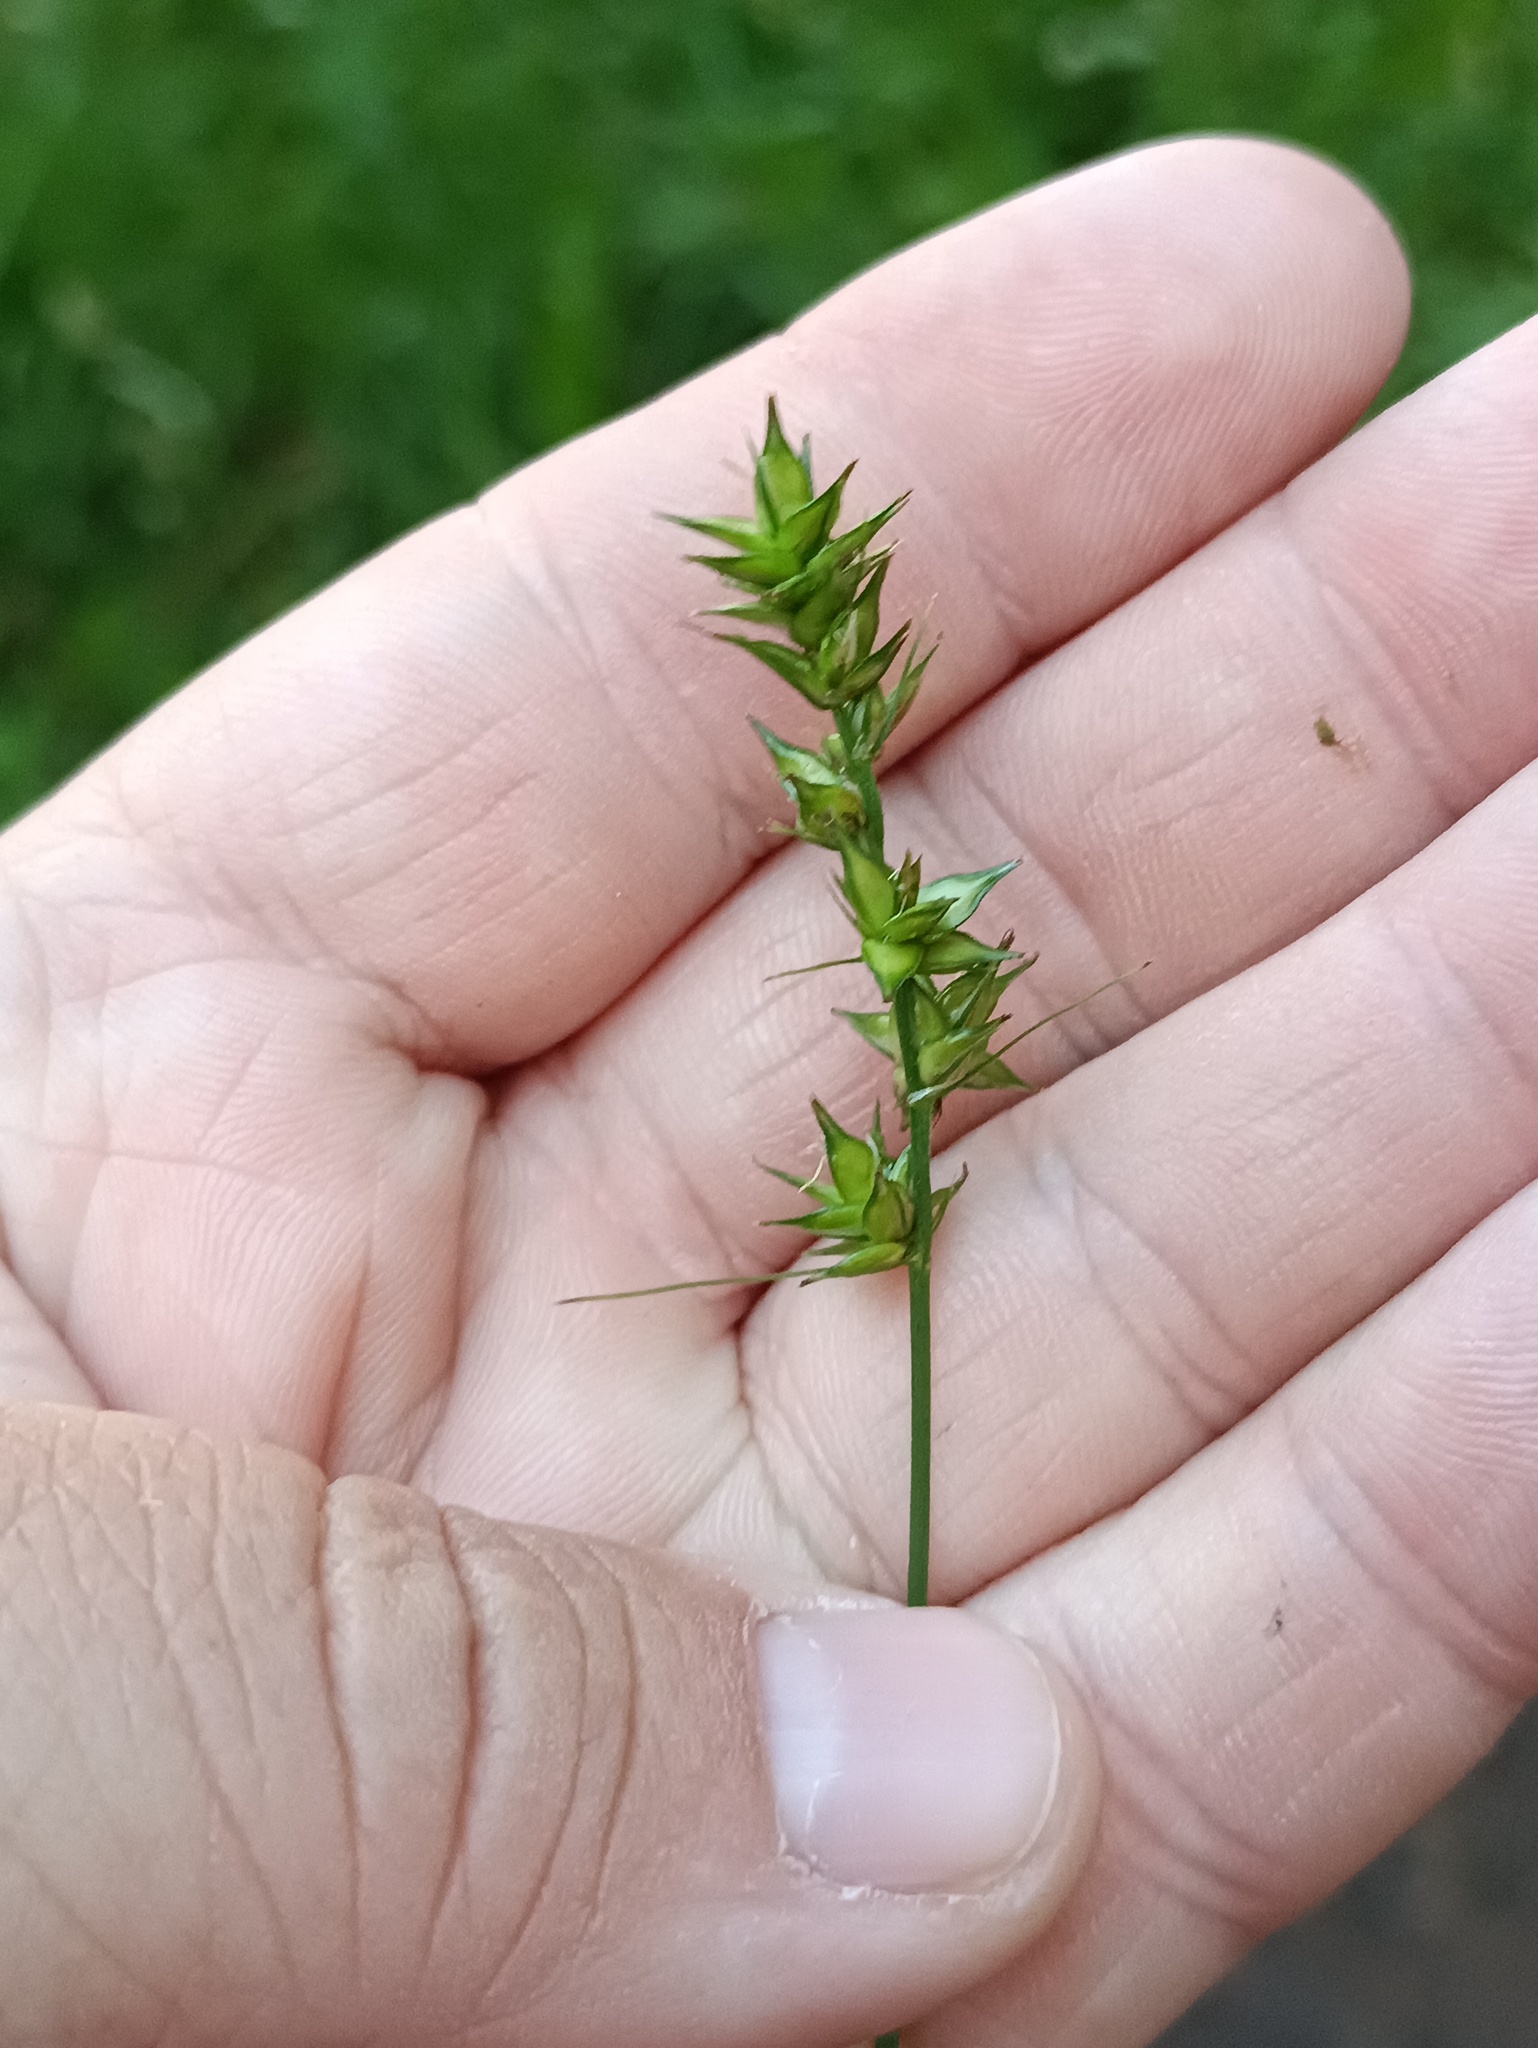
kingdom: Plantae
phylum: Tracheophyta
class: Liliopsida
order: Poales
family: Cyperaceae
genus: Carex
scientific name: Carex spicata
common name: Spiked sedge
